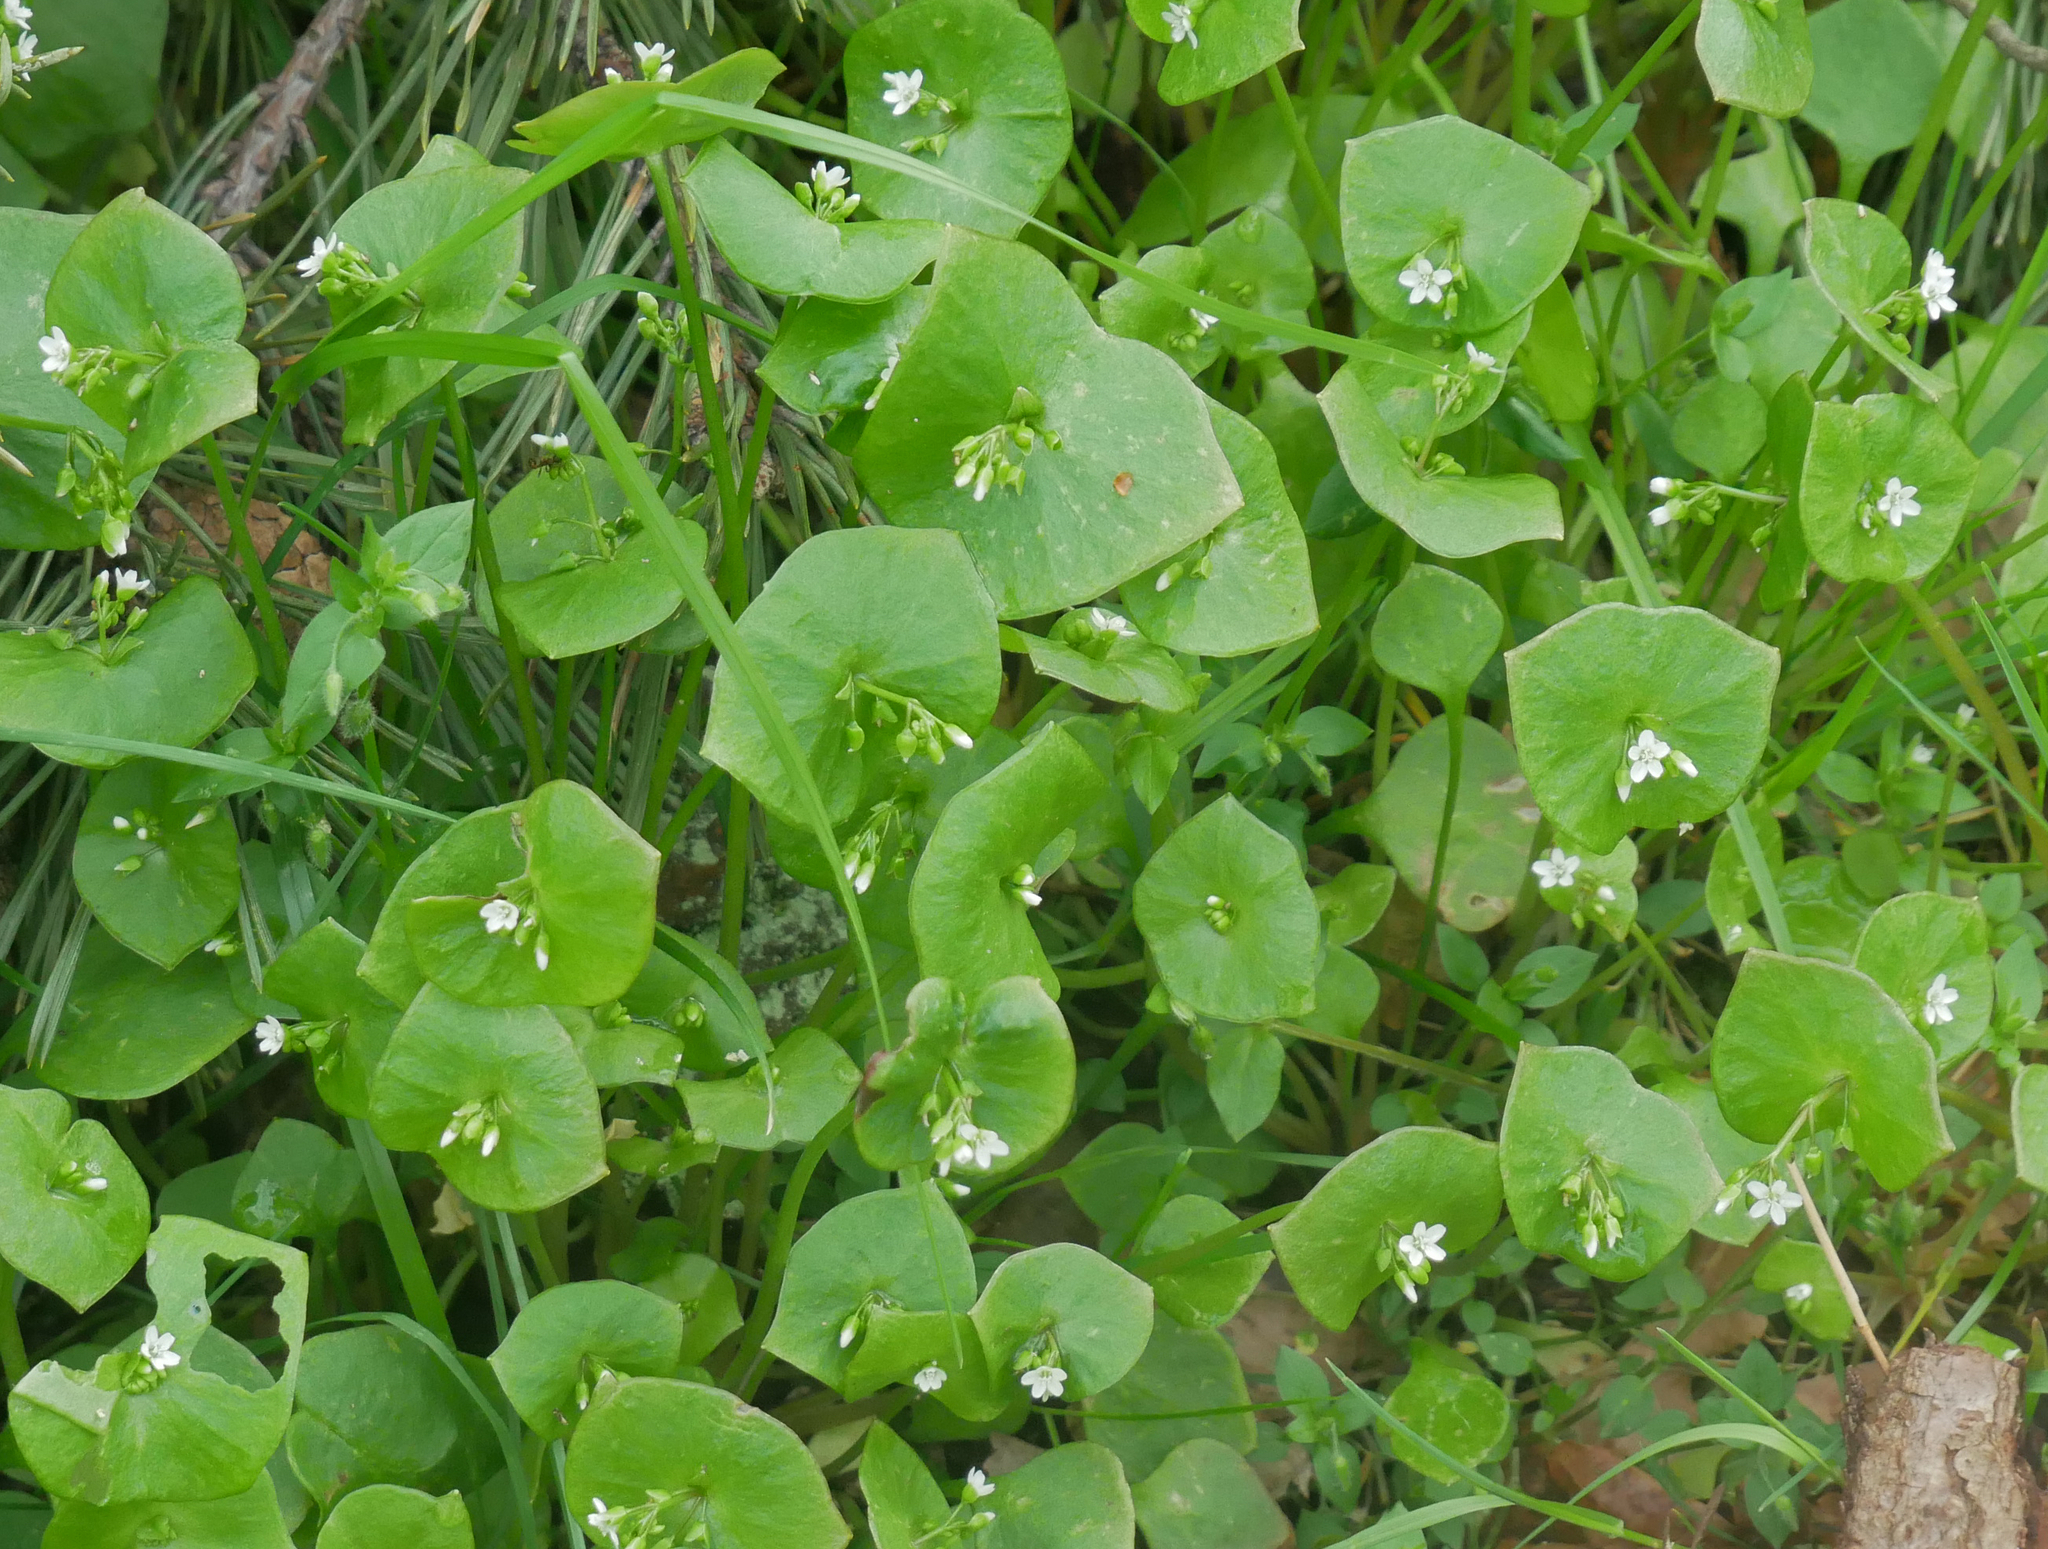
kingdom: Plantae
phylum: Tracheophyta
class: Magnoliopsida
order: Caryophyllales
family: Montiaceae
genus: Claytonia
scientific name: Claytonia perfoliata
